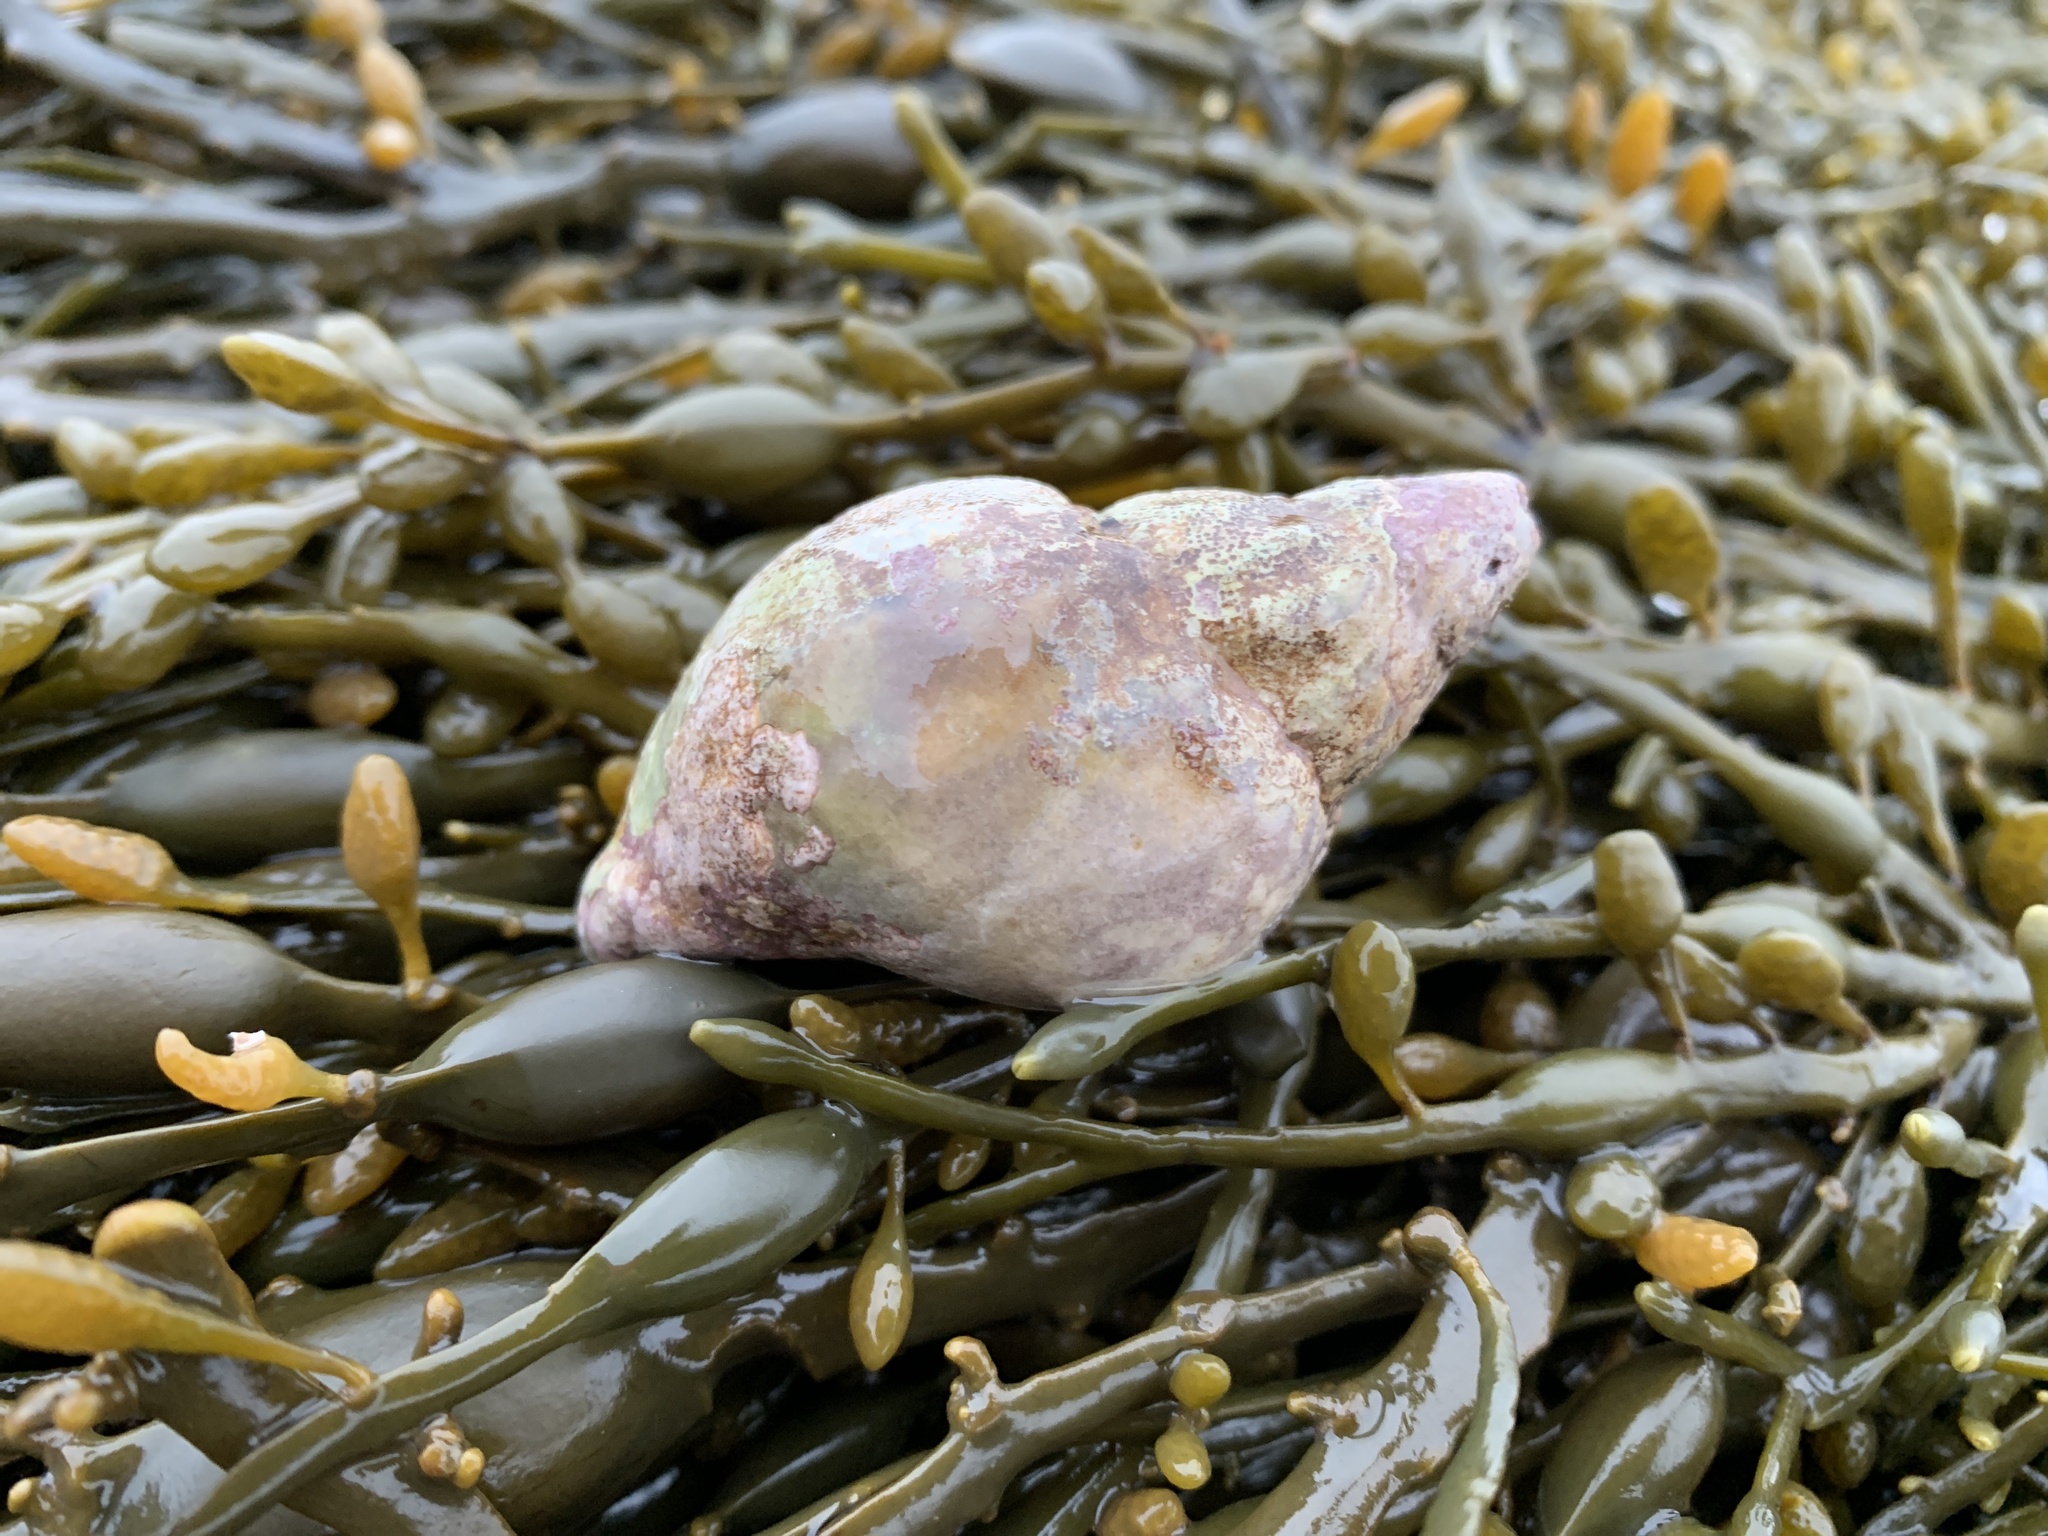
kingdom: Animalia
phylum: Mollusca
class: Gastropoda
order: Neogastropoda
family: Buccinidae
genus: Buccinum
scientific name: Buccinum undatum
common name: Common whelk
